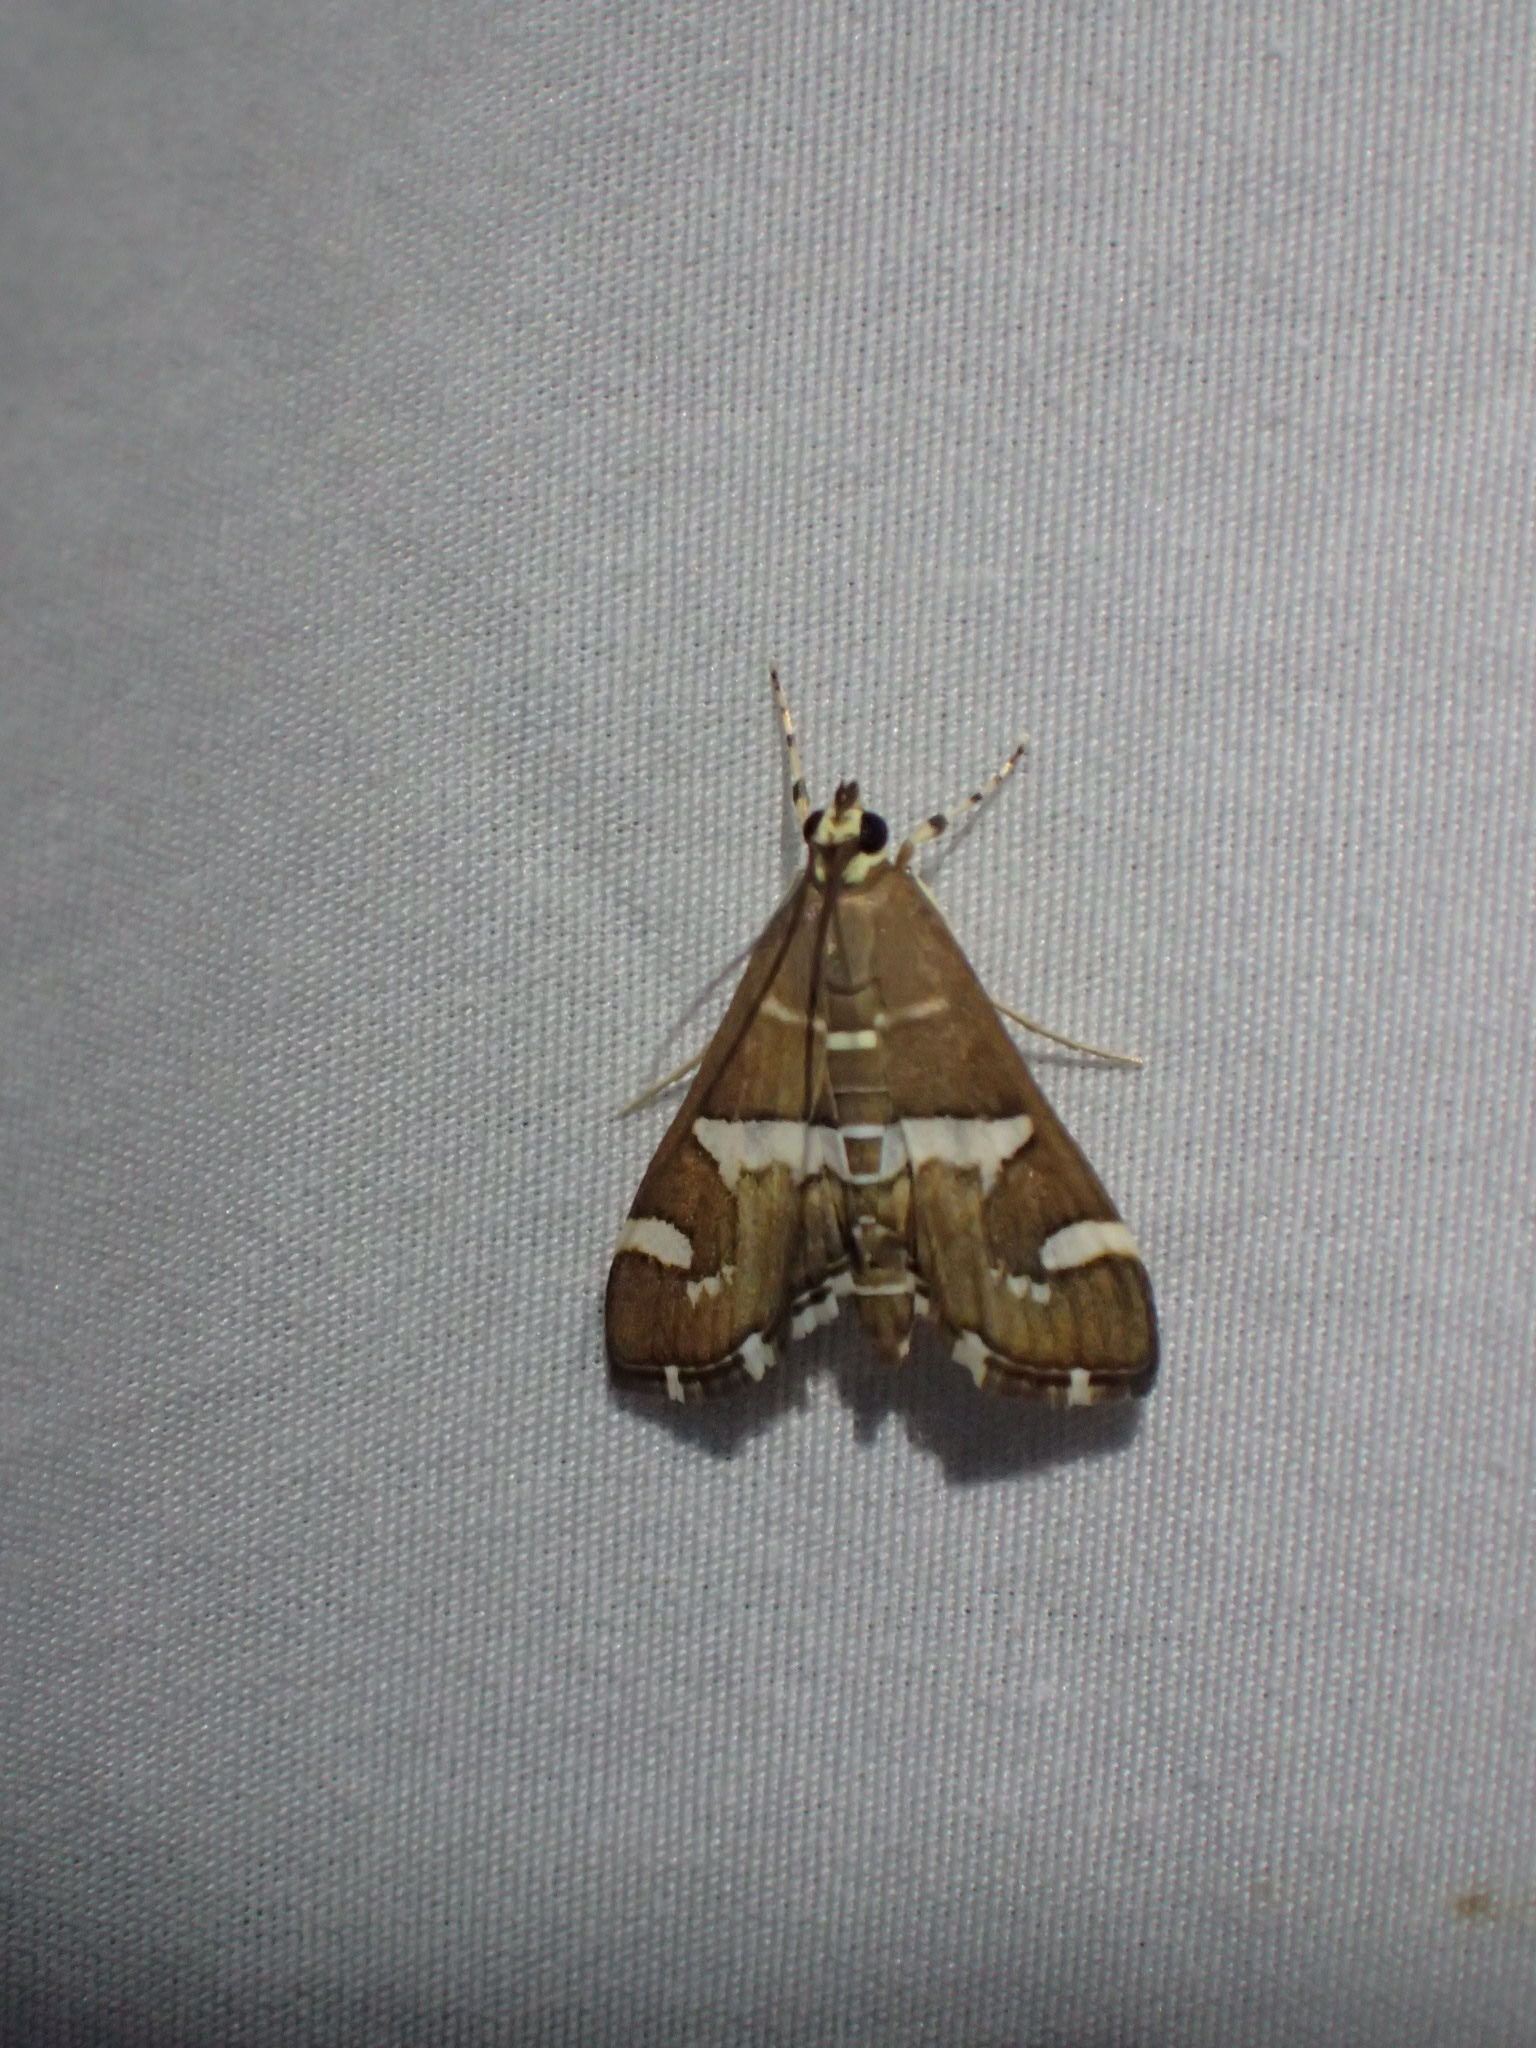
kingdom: Animalia
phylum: Arthropoda
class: Insecta
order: Lepidoptera
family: Crambidae
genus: Spoladea
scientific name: Spoladea recurvalis
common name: Beet webworm moth
